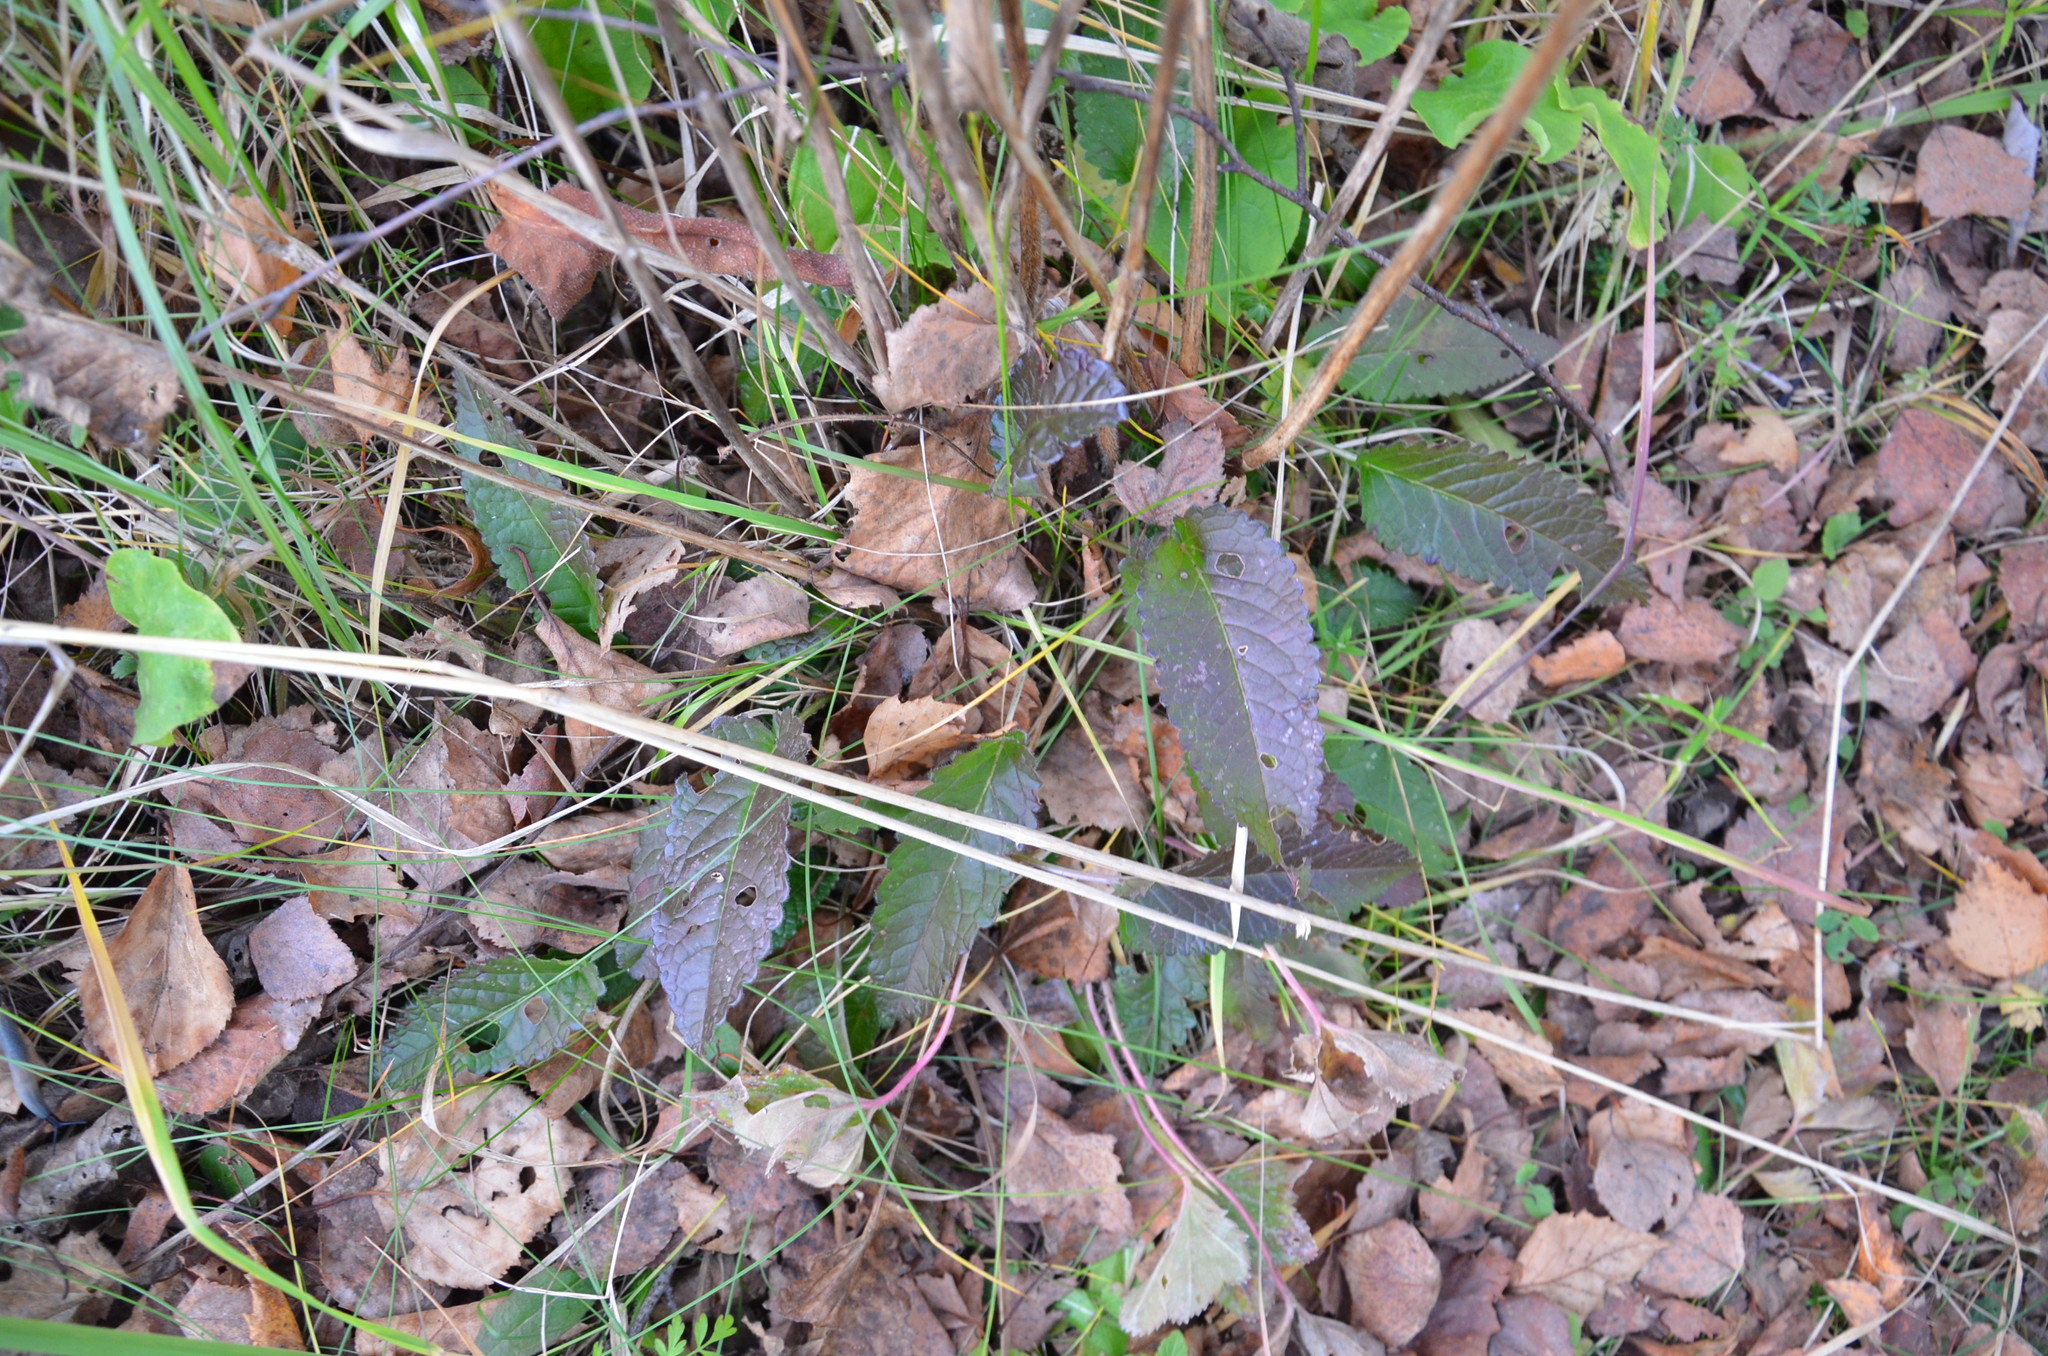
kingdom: Plantae
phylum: Tracheophyta
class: Magnoliopsida
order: Lamiales
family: Lamiaceae
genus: Betonica
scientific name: Betonica officinalis
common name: Bishop's-wort
